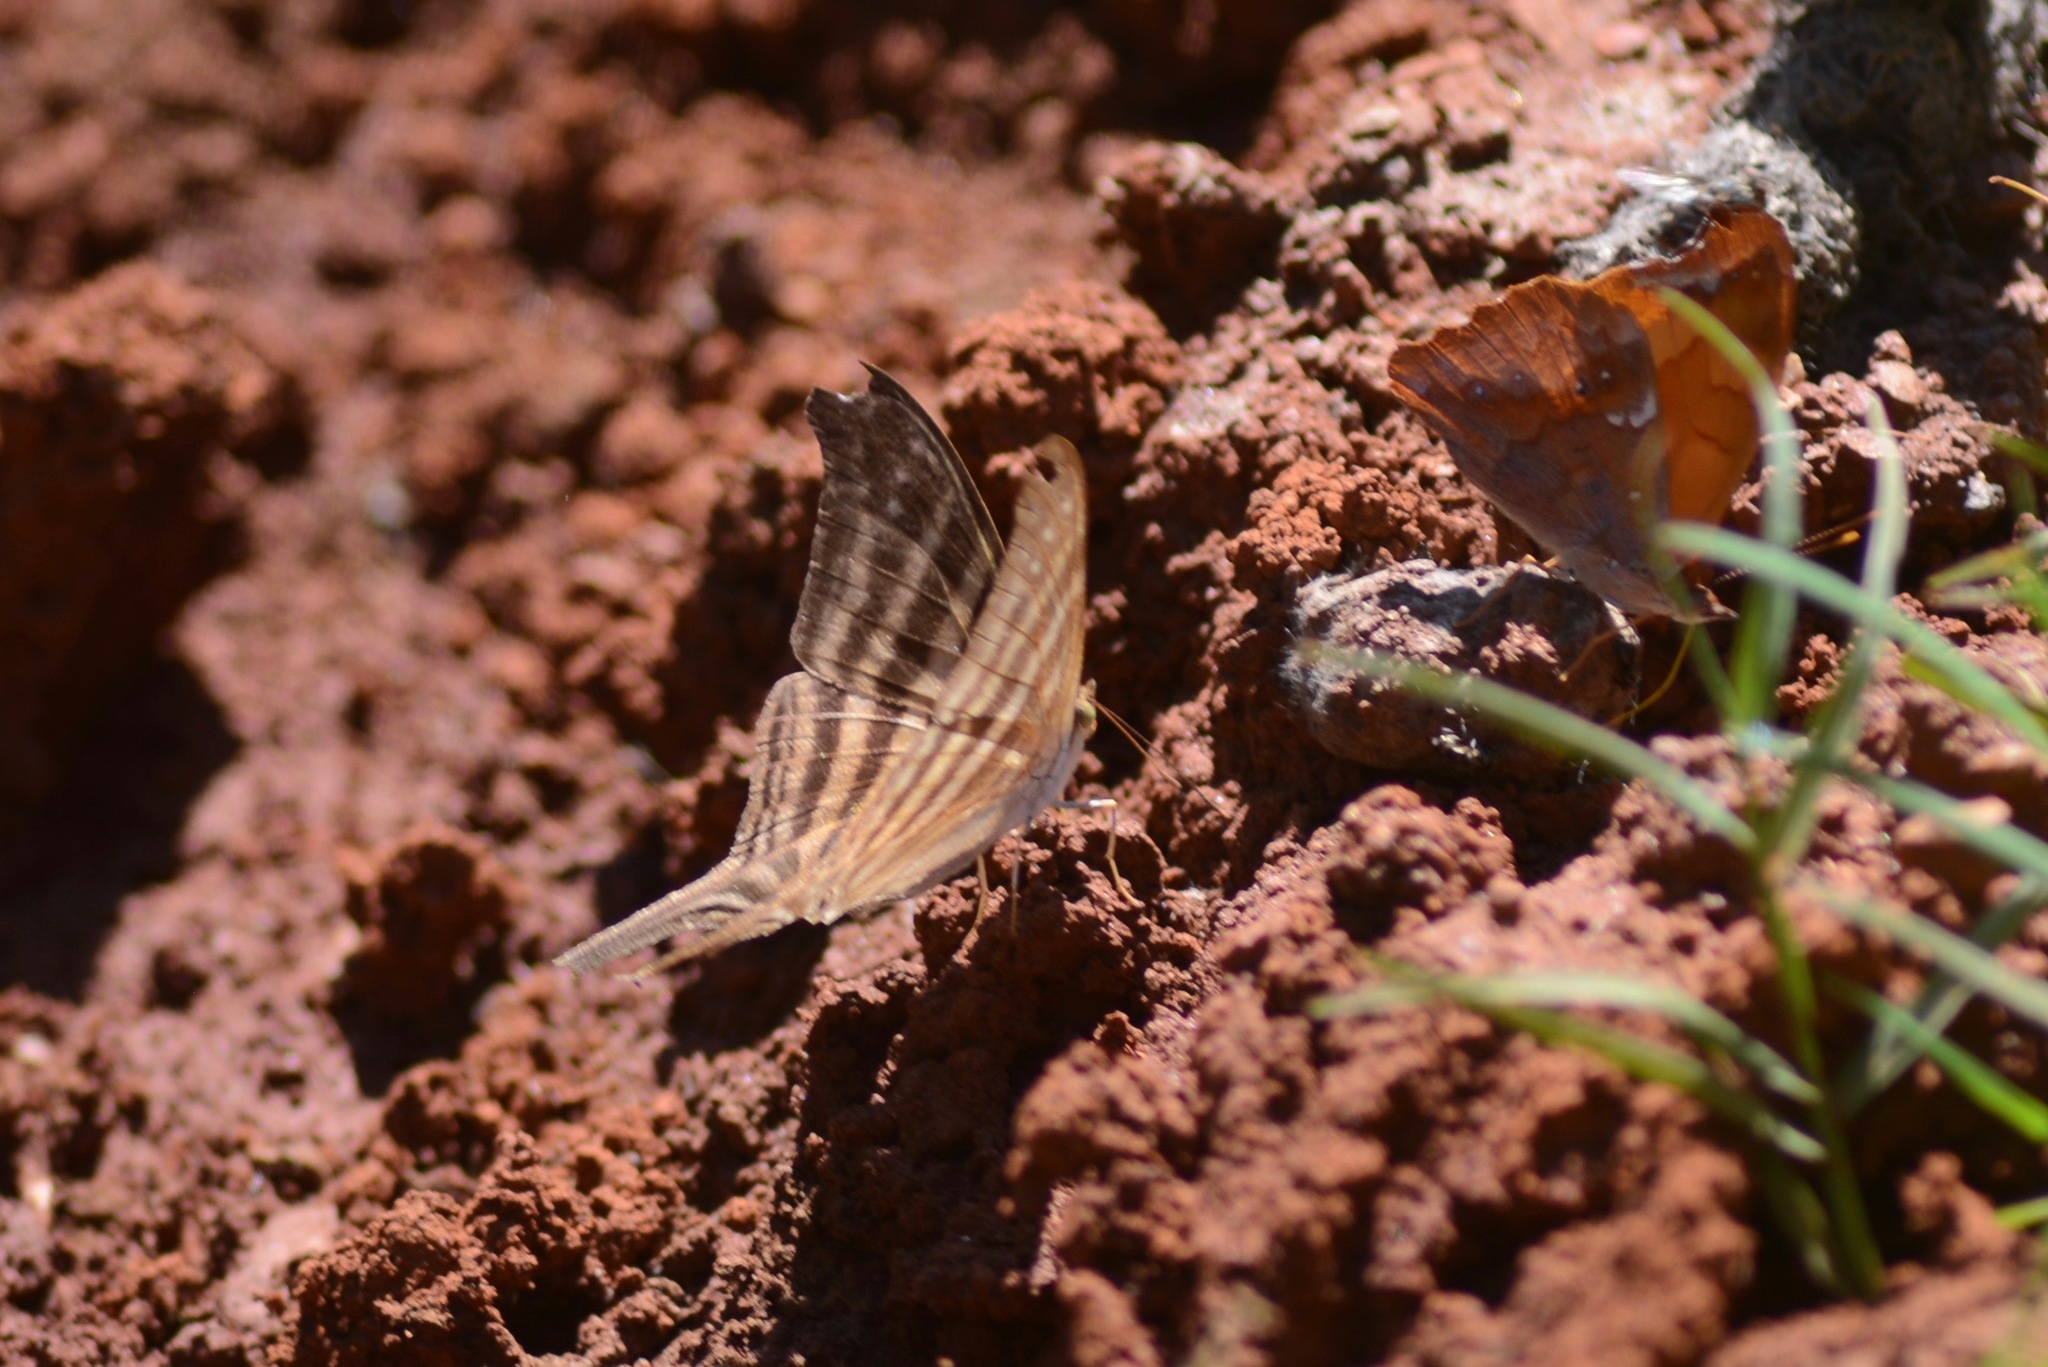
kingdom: Animalia
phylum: Arthropoda
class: Insecta
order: Lepidoptera
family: Nymphalidae
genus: Marpesia
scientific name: Marpesia chiron
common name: Many-banded daggerwing
